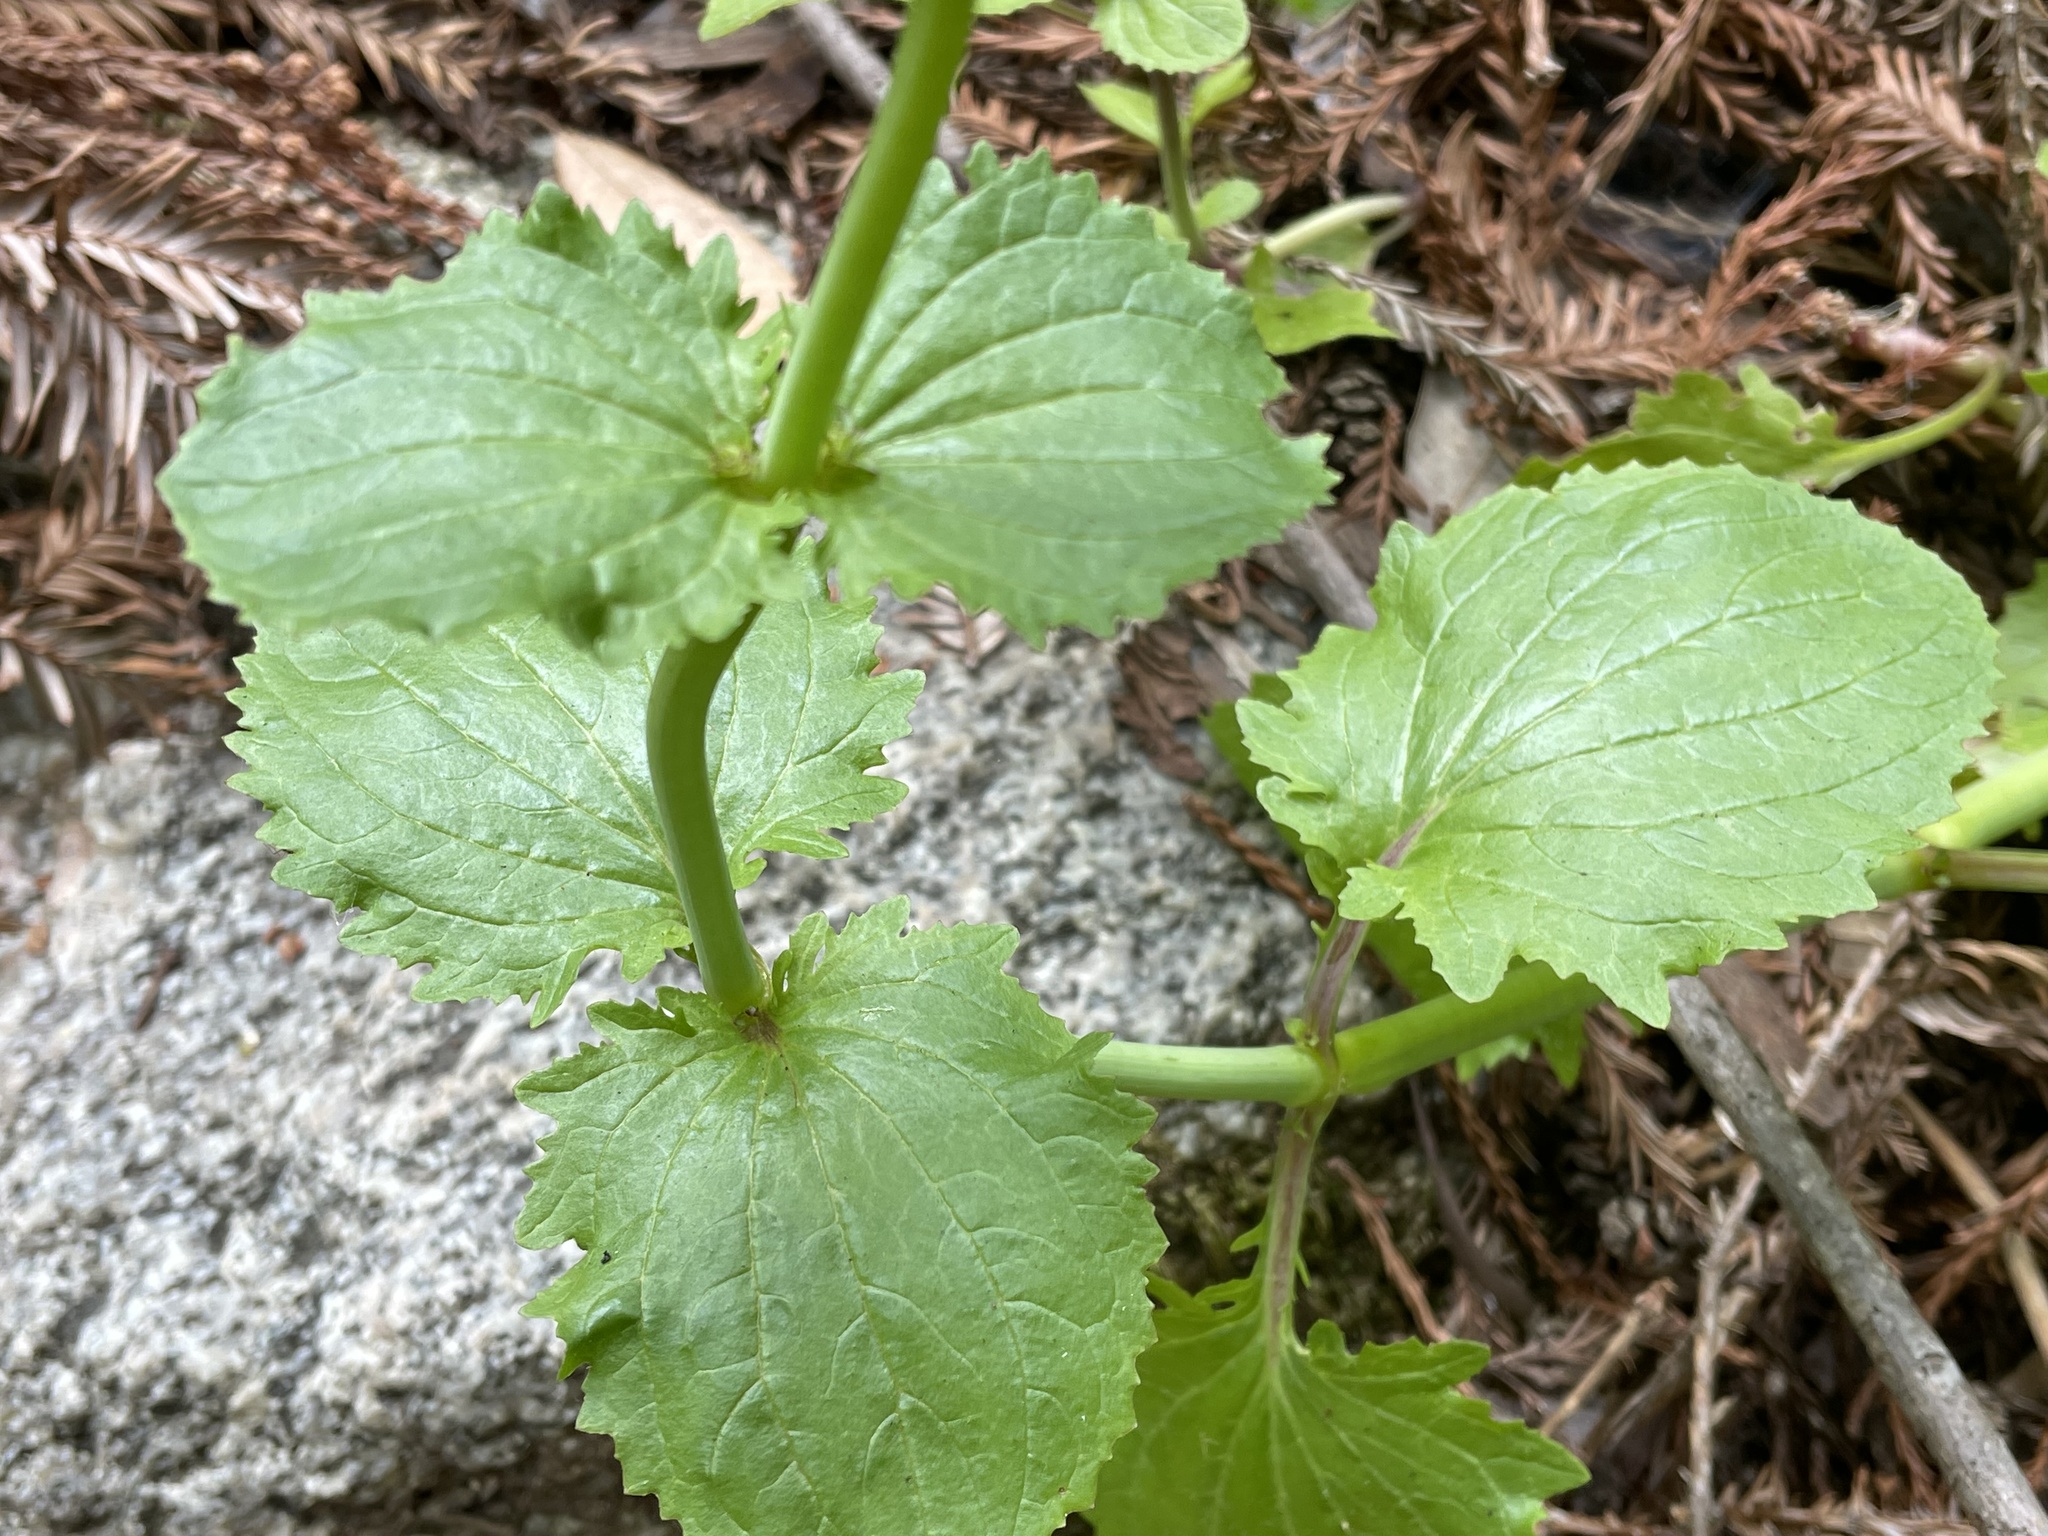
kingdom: Plantae
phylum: Tracheophyta
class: Magnoliopsida
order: Lamiales
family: Phrymaceae
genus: Erythranthe
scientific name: Erythranthe guttata
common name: Monkeyflower
